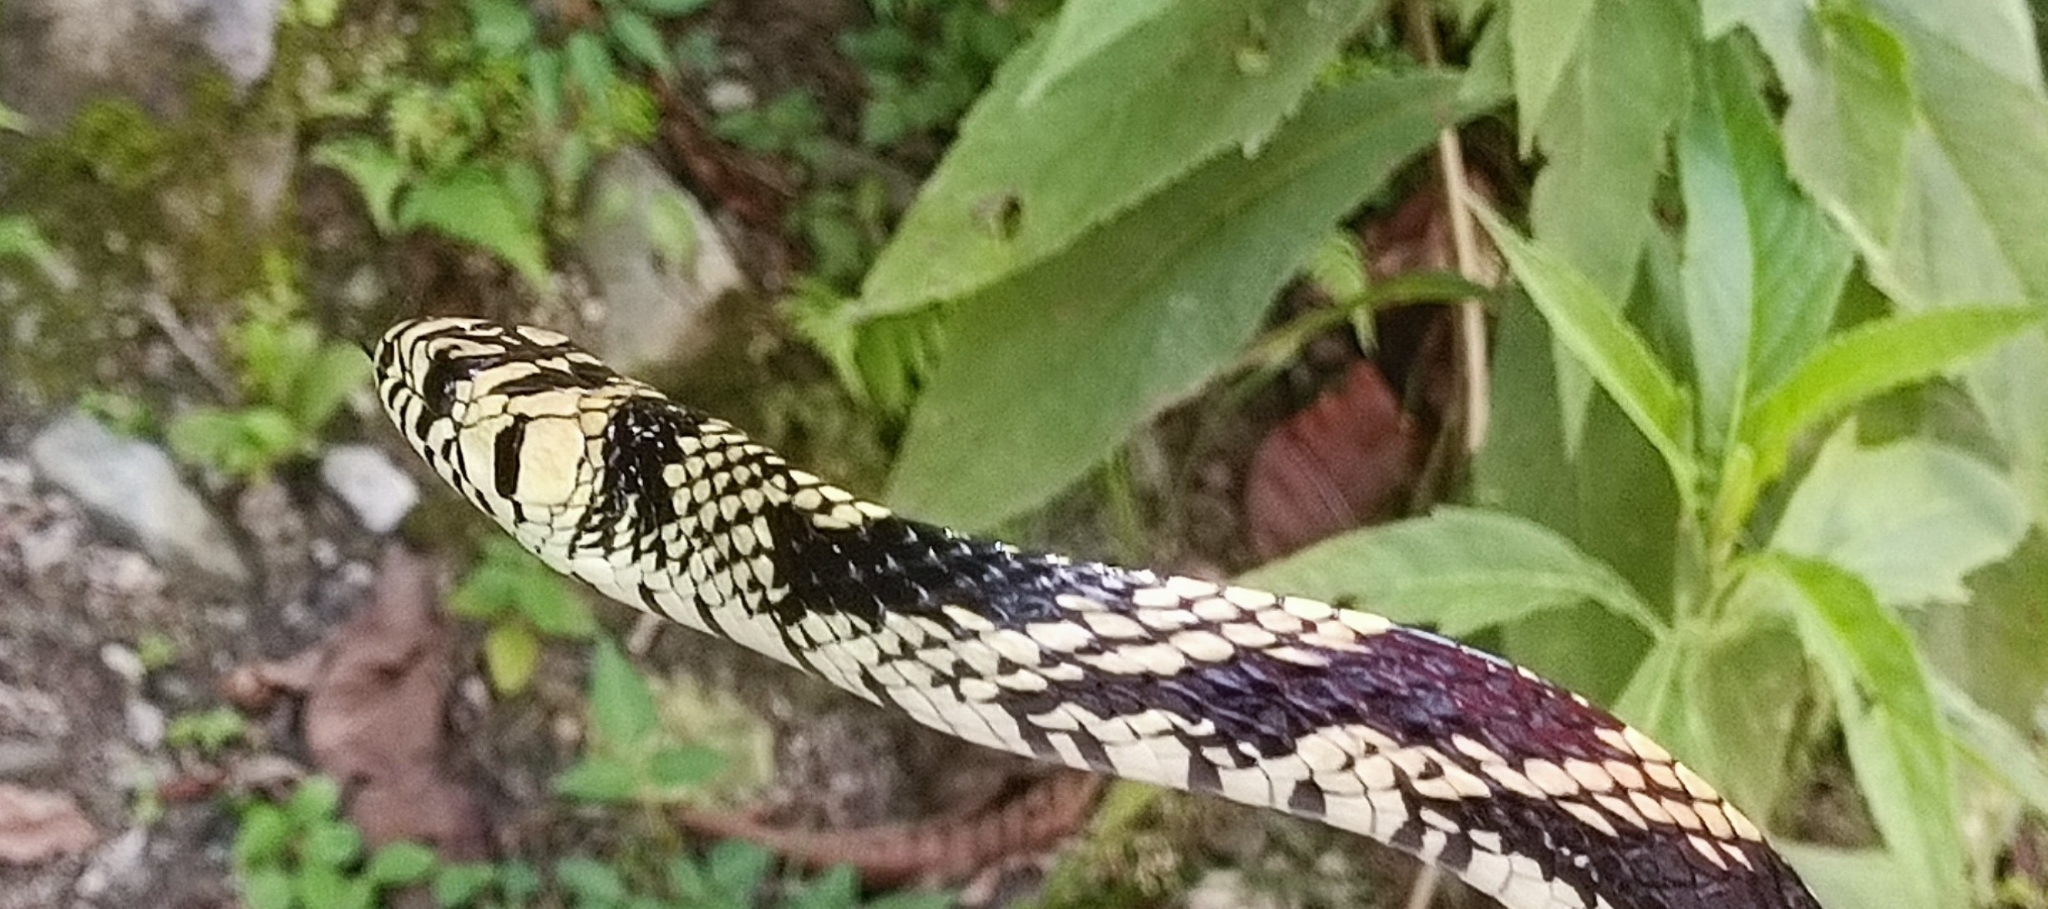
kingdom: Animalia
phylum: Chordata
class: Squamata
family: Colubridae
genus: Spilotes
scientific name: Spilotes pullatus
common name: Chicken snake
